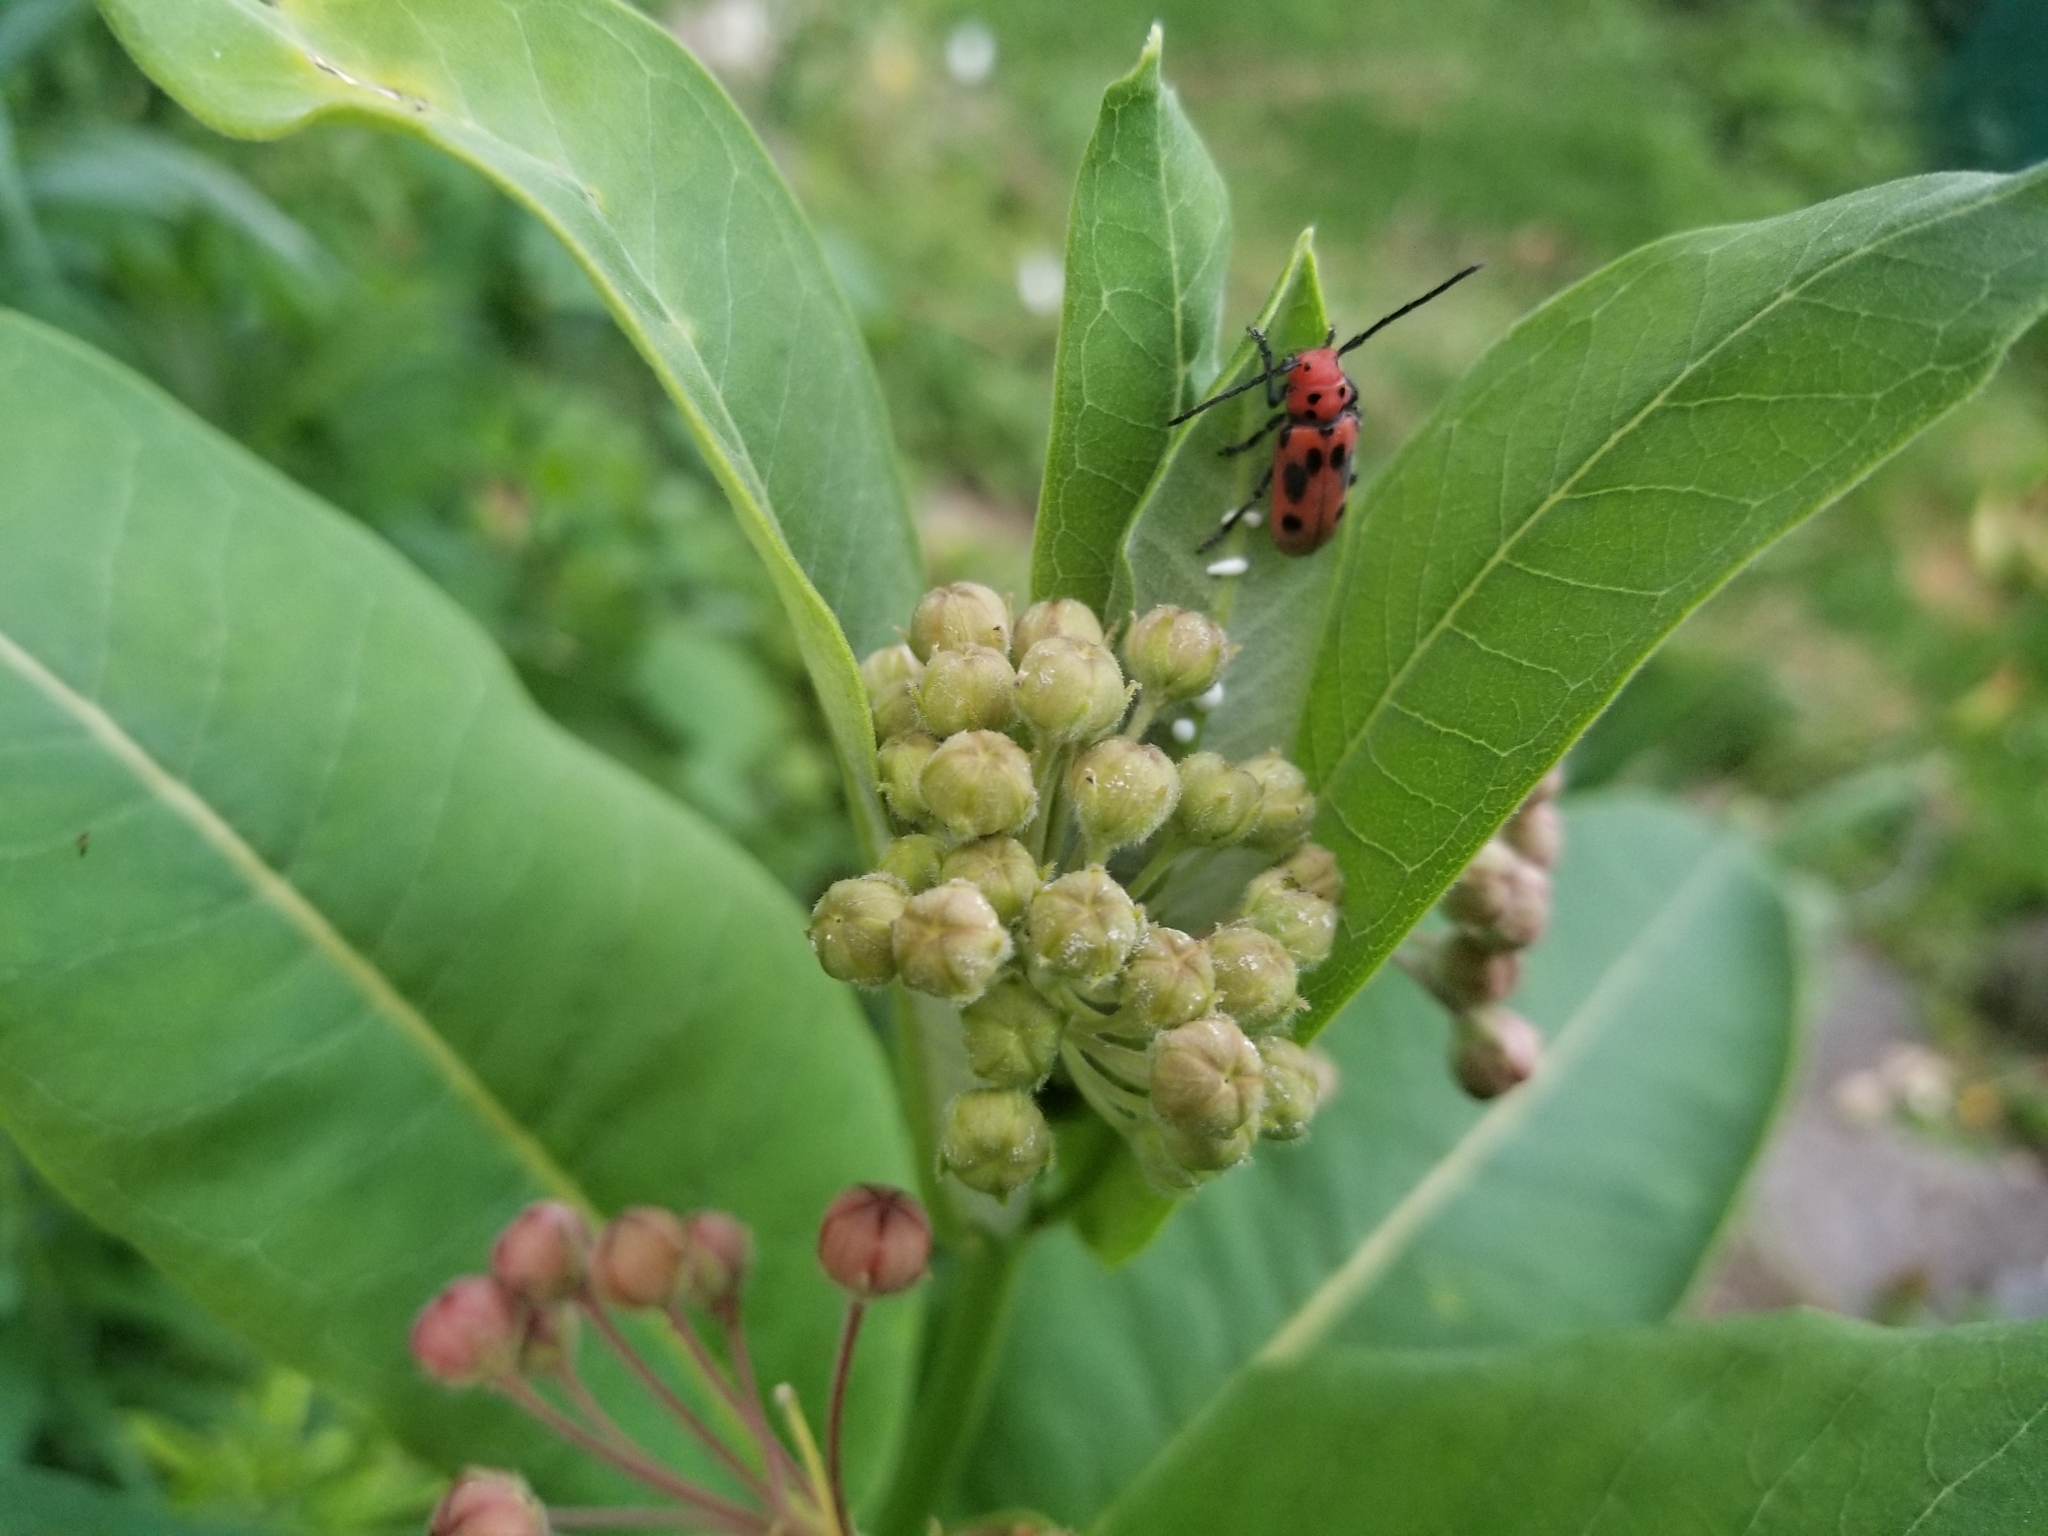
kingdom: Animalia
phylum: Arthropoda
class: Insecta
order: Coleoptera
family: Cerambycidae
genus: Tetraopes
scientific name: Tetraopes tetrophthalmus
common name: Red milkweed beetle
